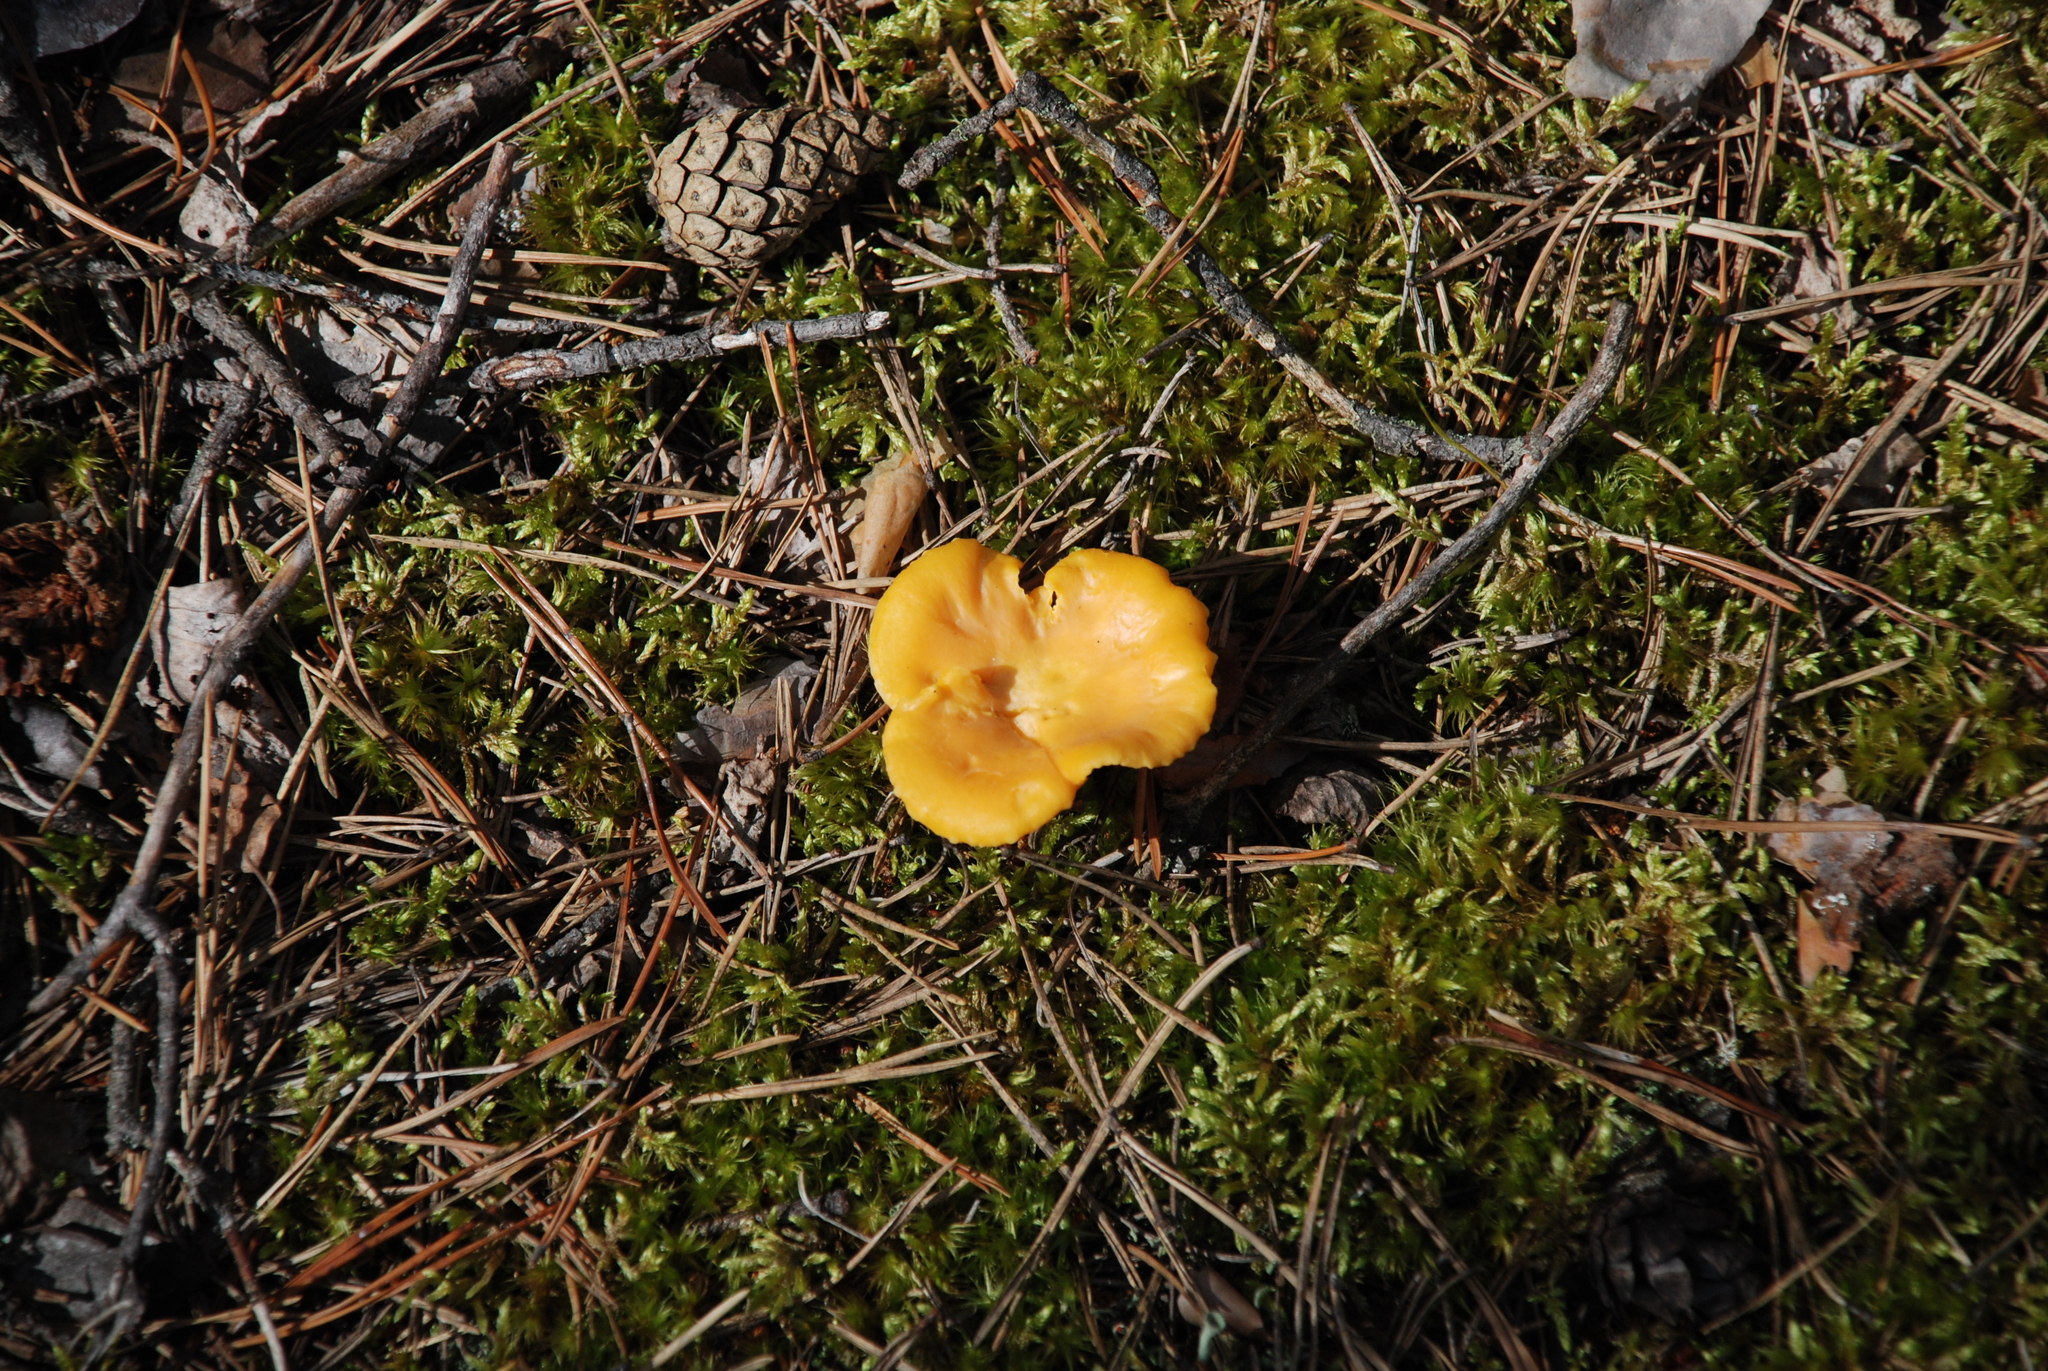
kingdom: Fungi
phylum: Basidiomycota
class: Agaricomycetes
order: Cantharellales
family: Hydnaceae
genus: Cantharellus
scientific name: Cantharellus cibarius
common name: Chanterelle
